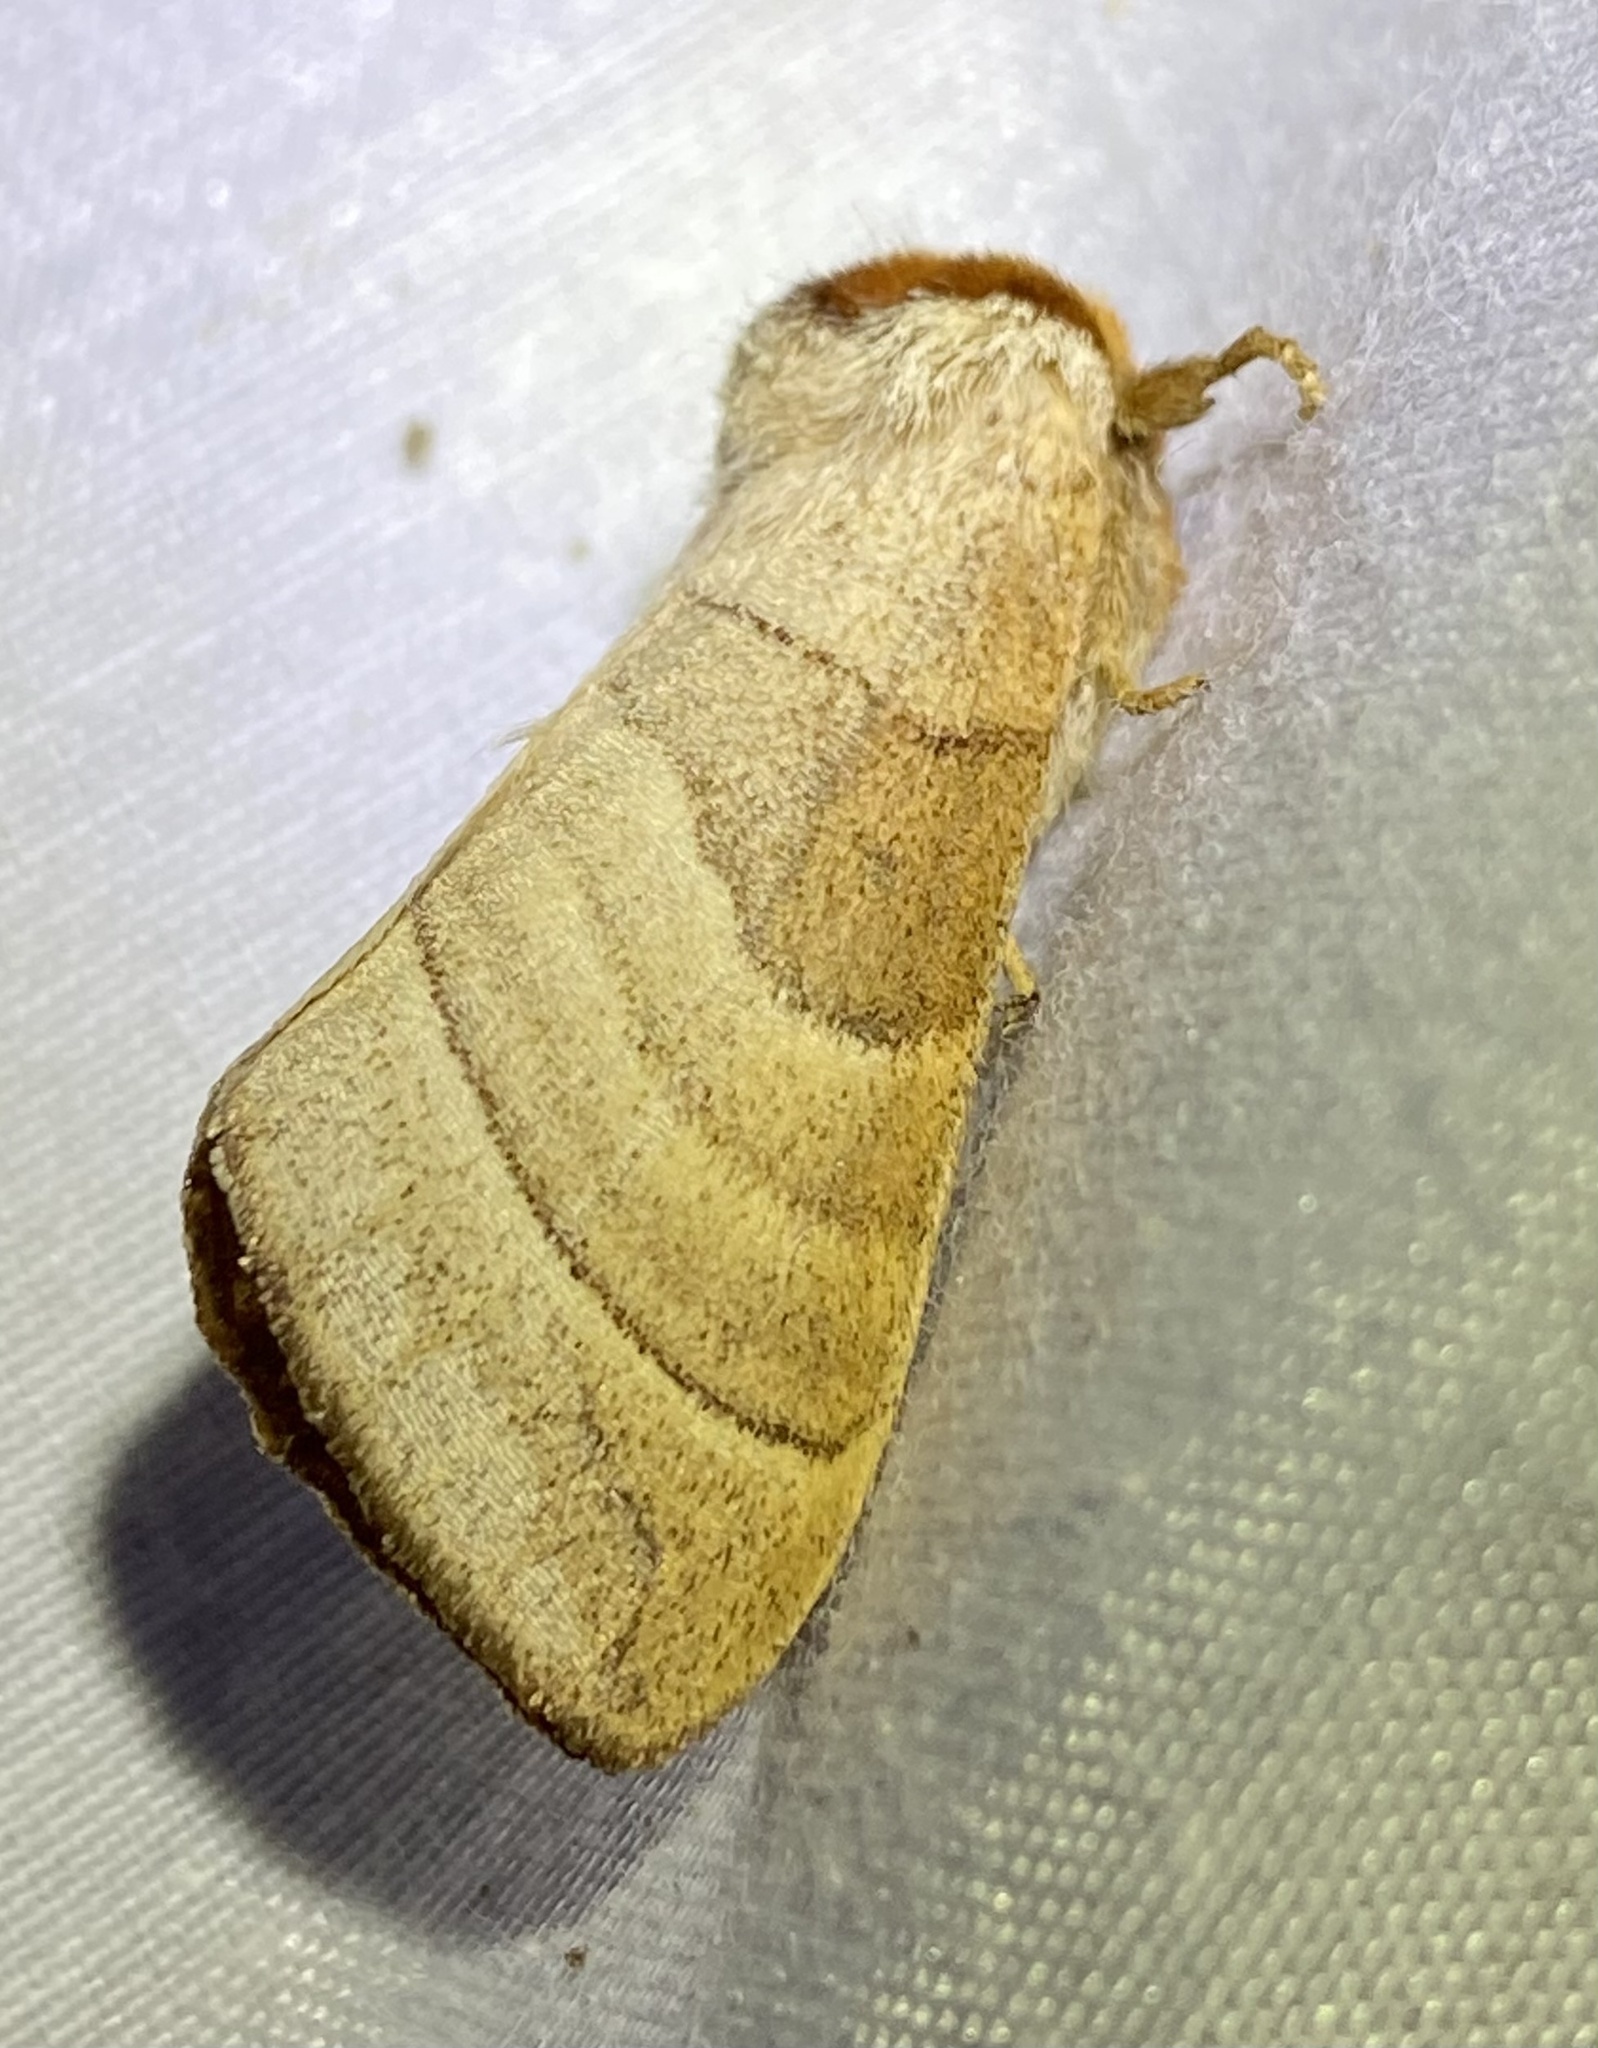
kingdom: Animalia
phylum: Arthropoda
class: Insecta
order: Lepidoptera
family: Notodontidae
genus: Datana
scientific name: Datana integerrima
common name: Walnut caterpillar
